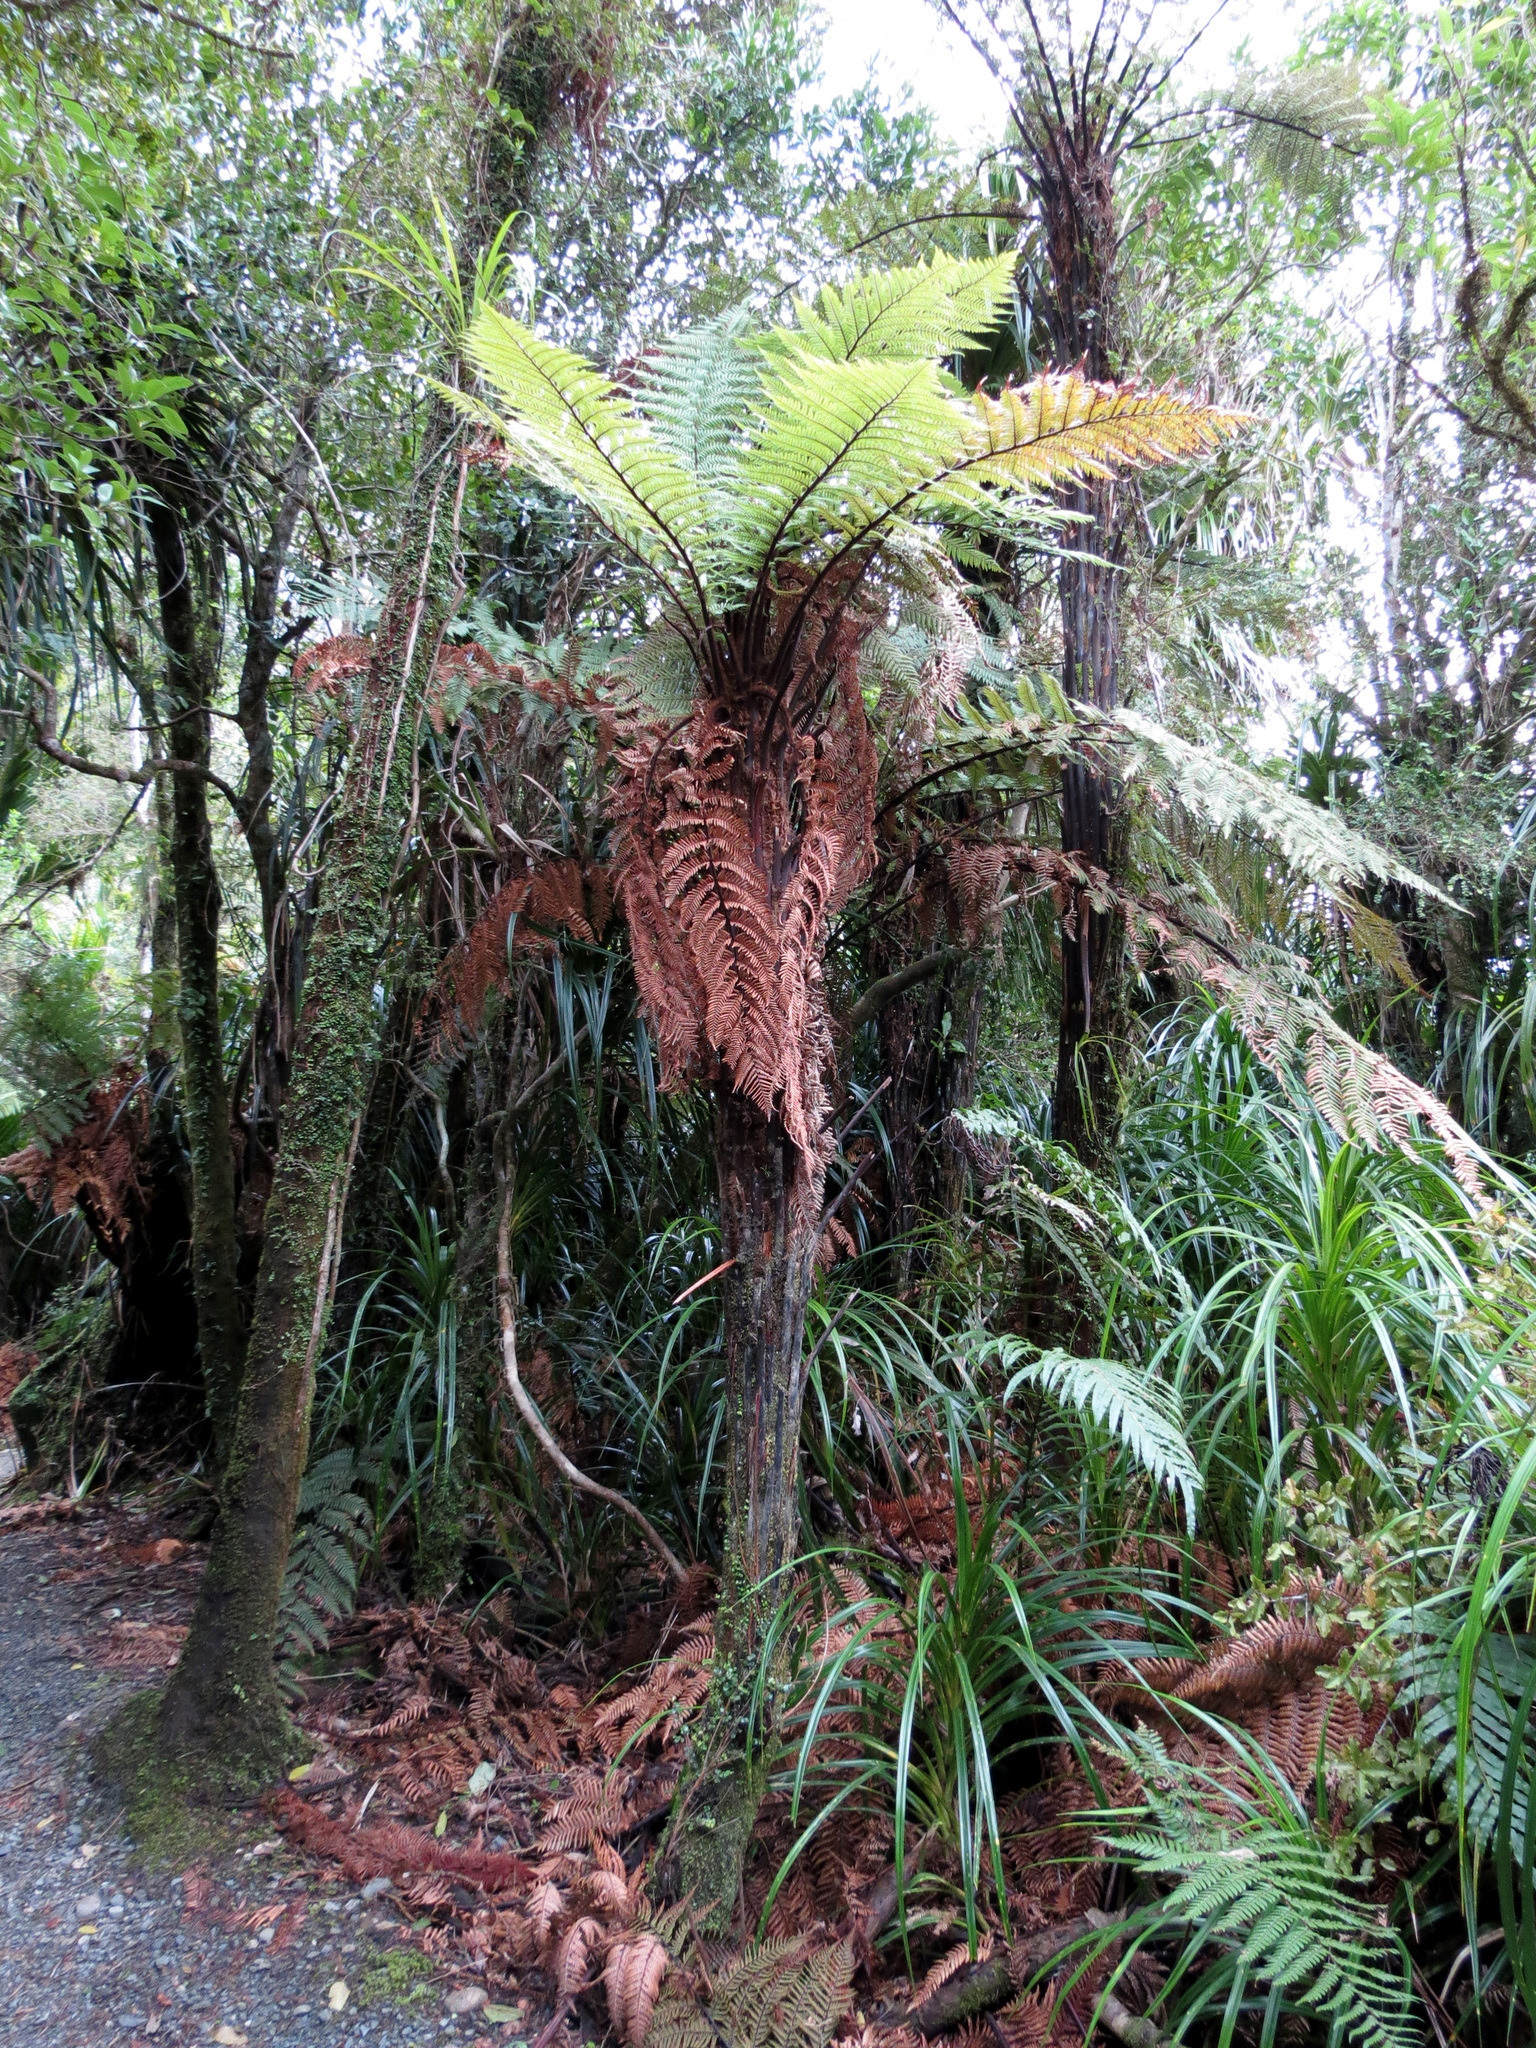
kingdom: Plantae
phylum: Tracheophyta
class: Polypodiopsida
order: Cyatheales
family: Dicksoniaceae
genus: Dicksonia
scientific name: Dicksonia squarrosa
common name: Hard treefern
